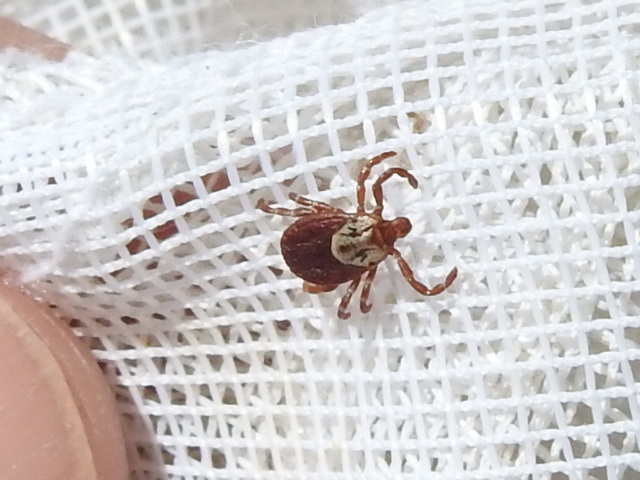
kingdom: Animalia
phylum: Arthropoda
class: Arachnida
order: Ixodida
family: Ixodidae
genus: Dermacentor
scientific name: Dermacentor variabilis
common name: American dog tick
